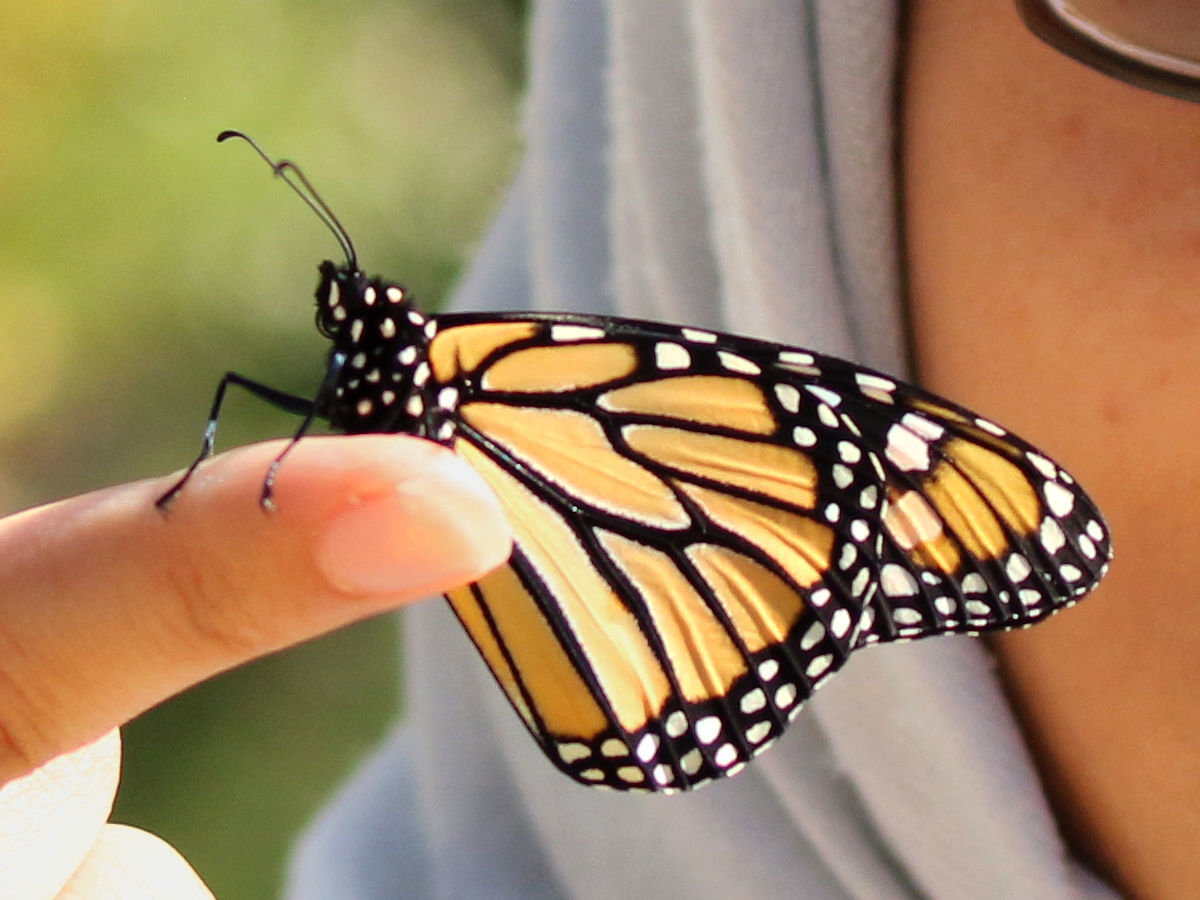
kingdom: Animalia
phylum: Arthropoda
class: Insecta
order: Lepidoptera
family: Nymphalidae
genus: Danaus
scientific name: Danaus plexippus
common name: Monarch
